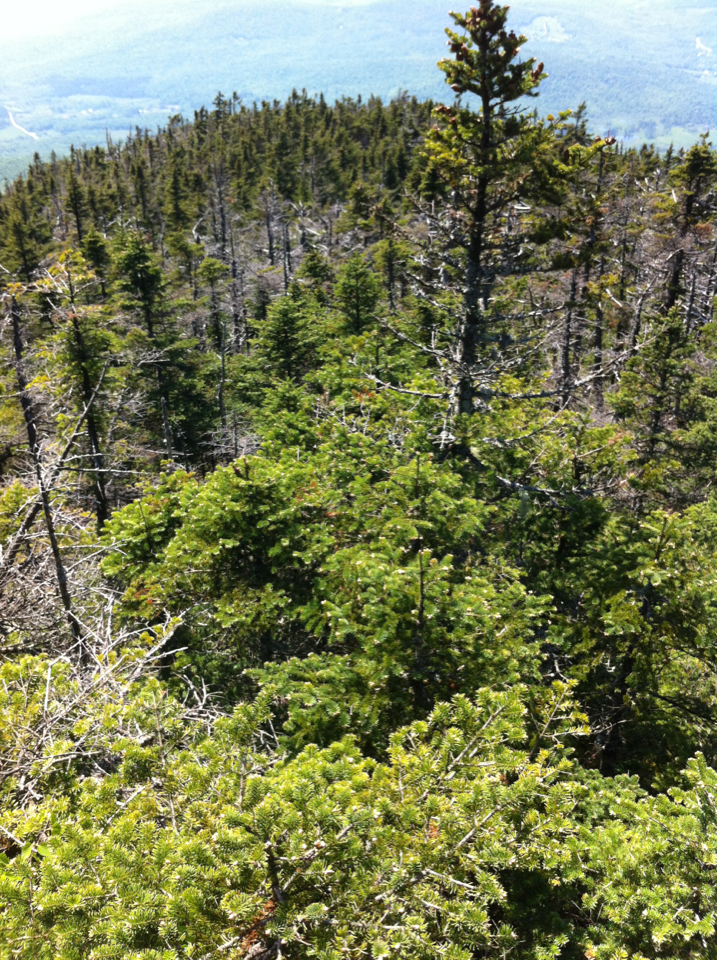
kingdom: Plantae
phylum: Tracheophyta
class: Pinopsida
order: Pinales
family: Pinaceae
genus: Abies
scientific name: Abies balsamea
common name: Balsam fir
